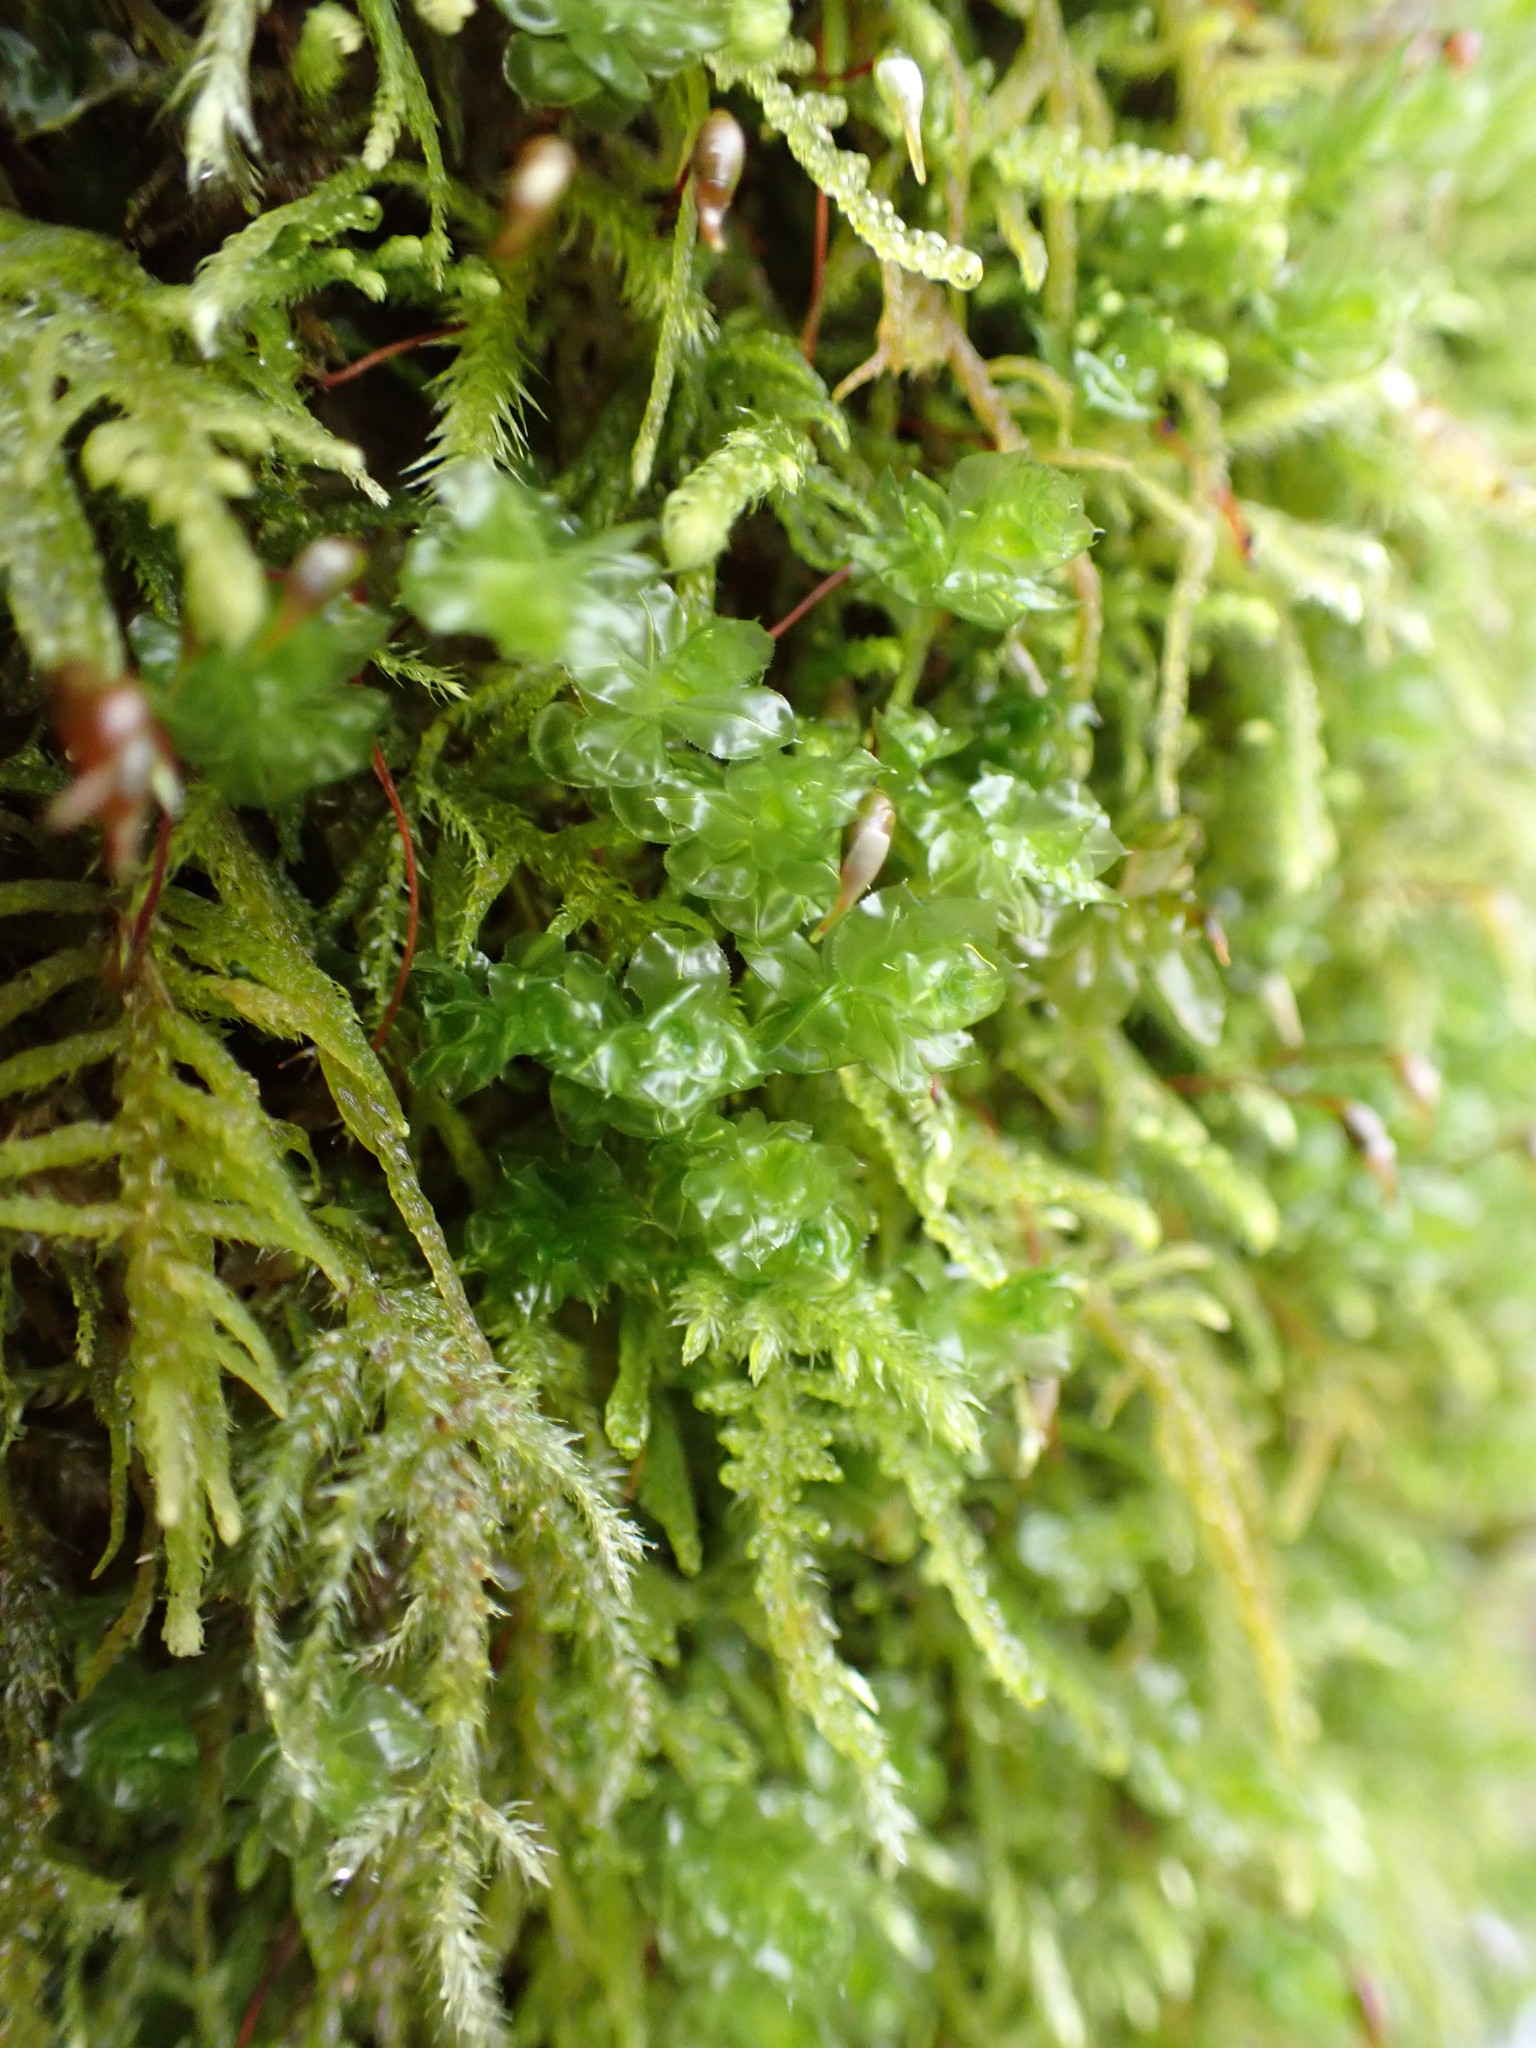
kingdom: Plantae
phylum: Bryophyta
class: Bryopsida
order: Bryales
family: Mniaceae
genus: Plagiomnium
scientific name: Plagiomnium venustum
